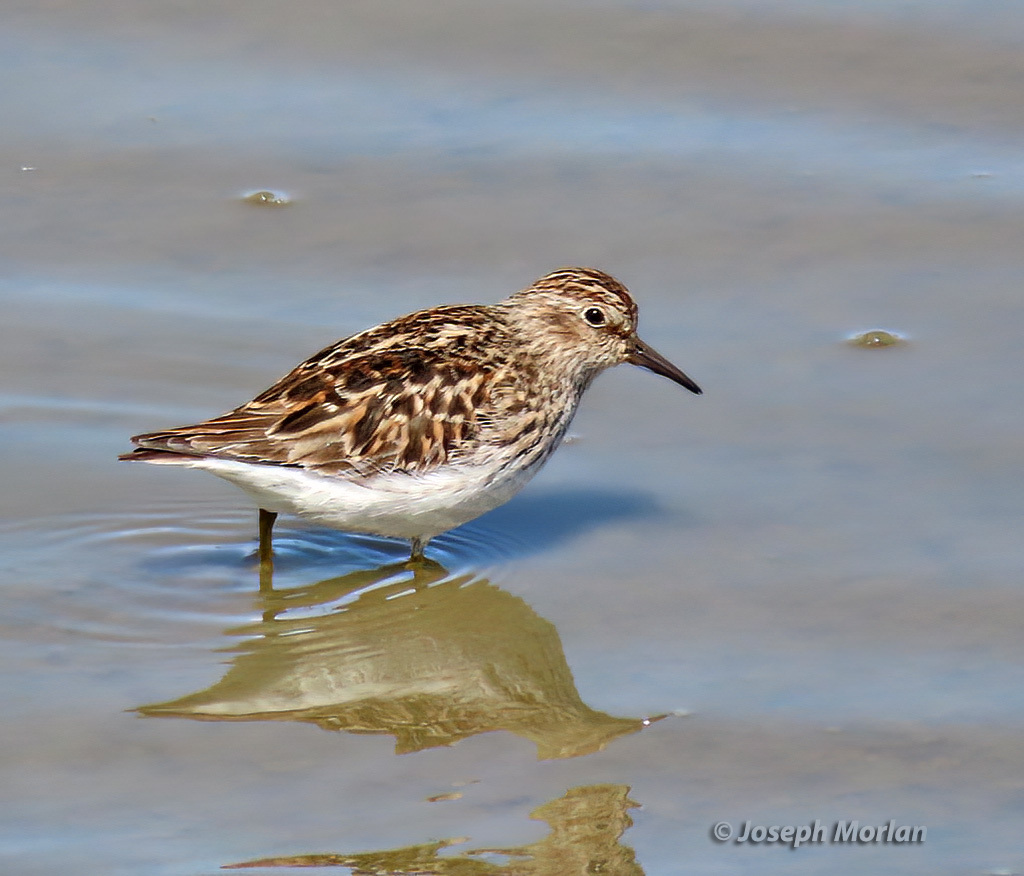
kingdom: Animalia
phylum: Chordata
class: Aves
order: Charadriiformes
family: Scolopacidae
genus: Calidris
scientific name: Calidris minutilla
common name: Least sandpiper
